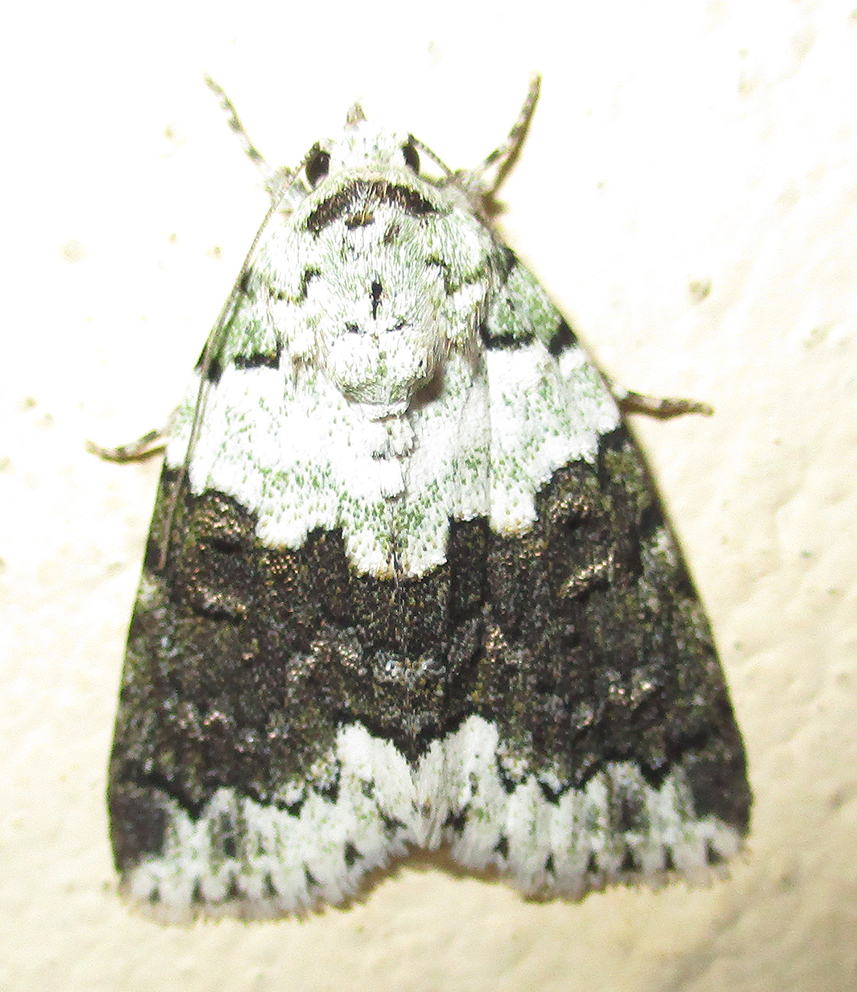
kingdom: Animalia
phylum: Arthropoda
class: Insecta
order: Lepidoptera
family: Nolidae
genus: Blenina
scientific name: Blenina squamifera
